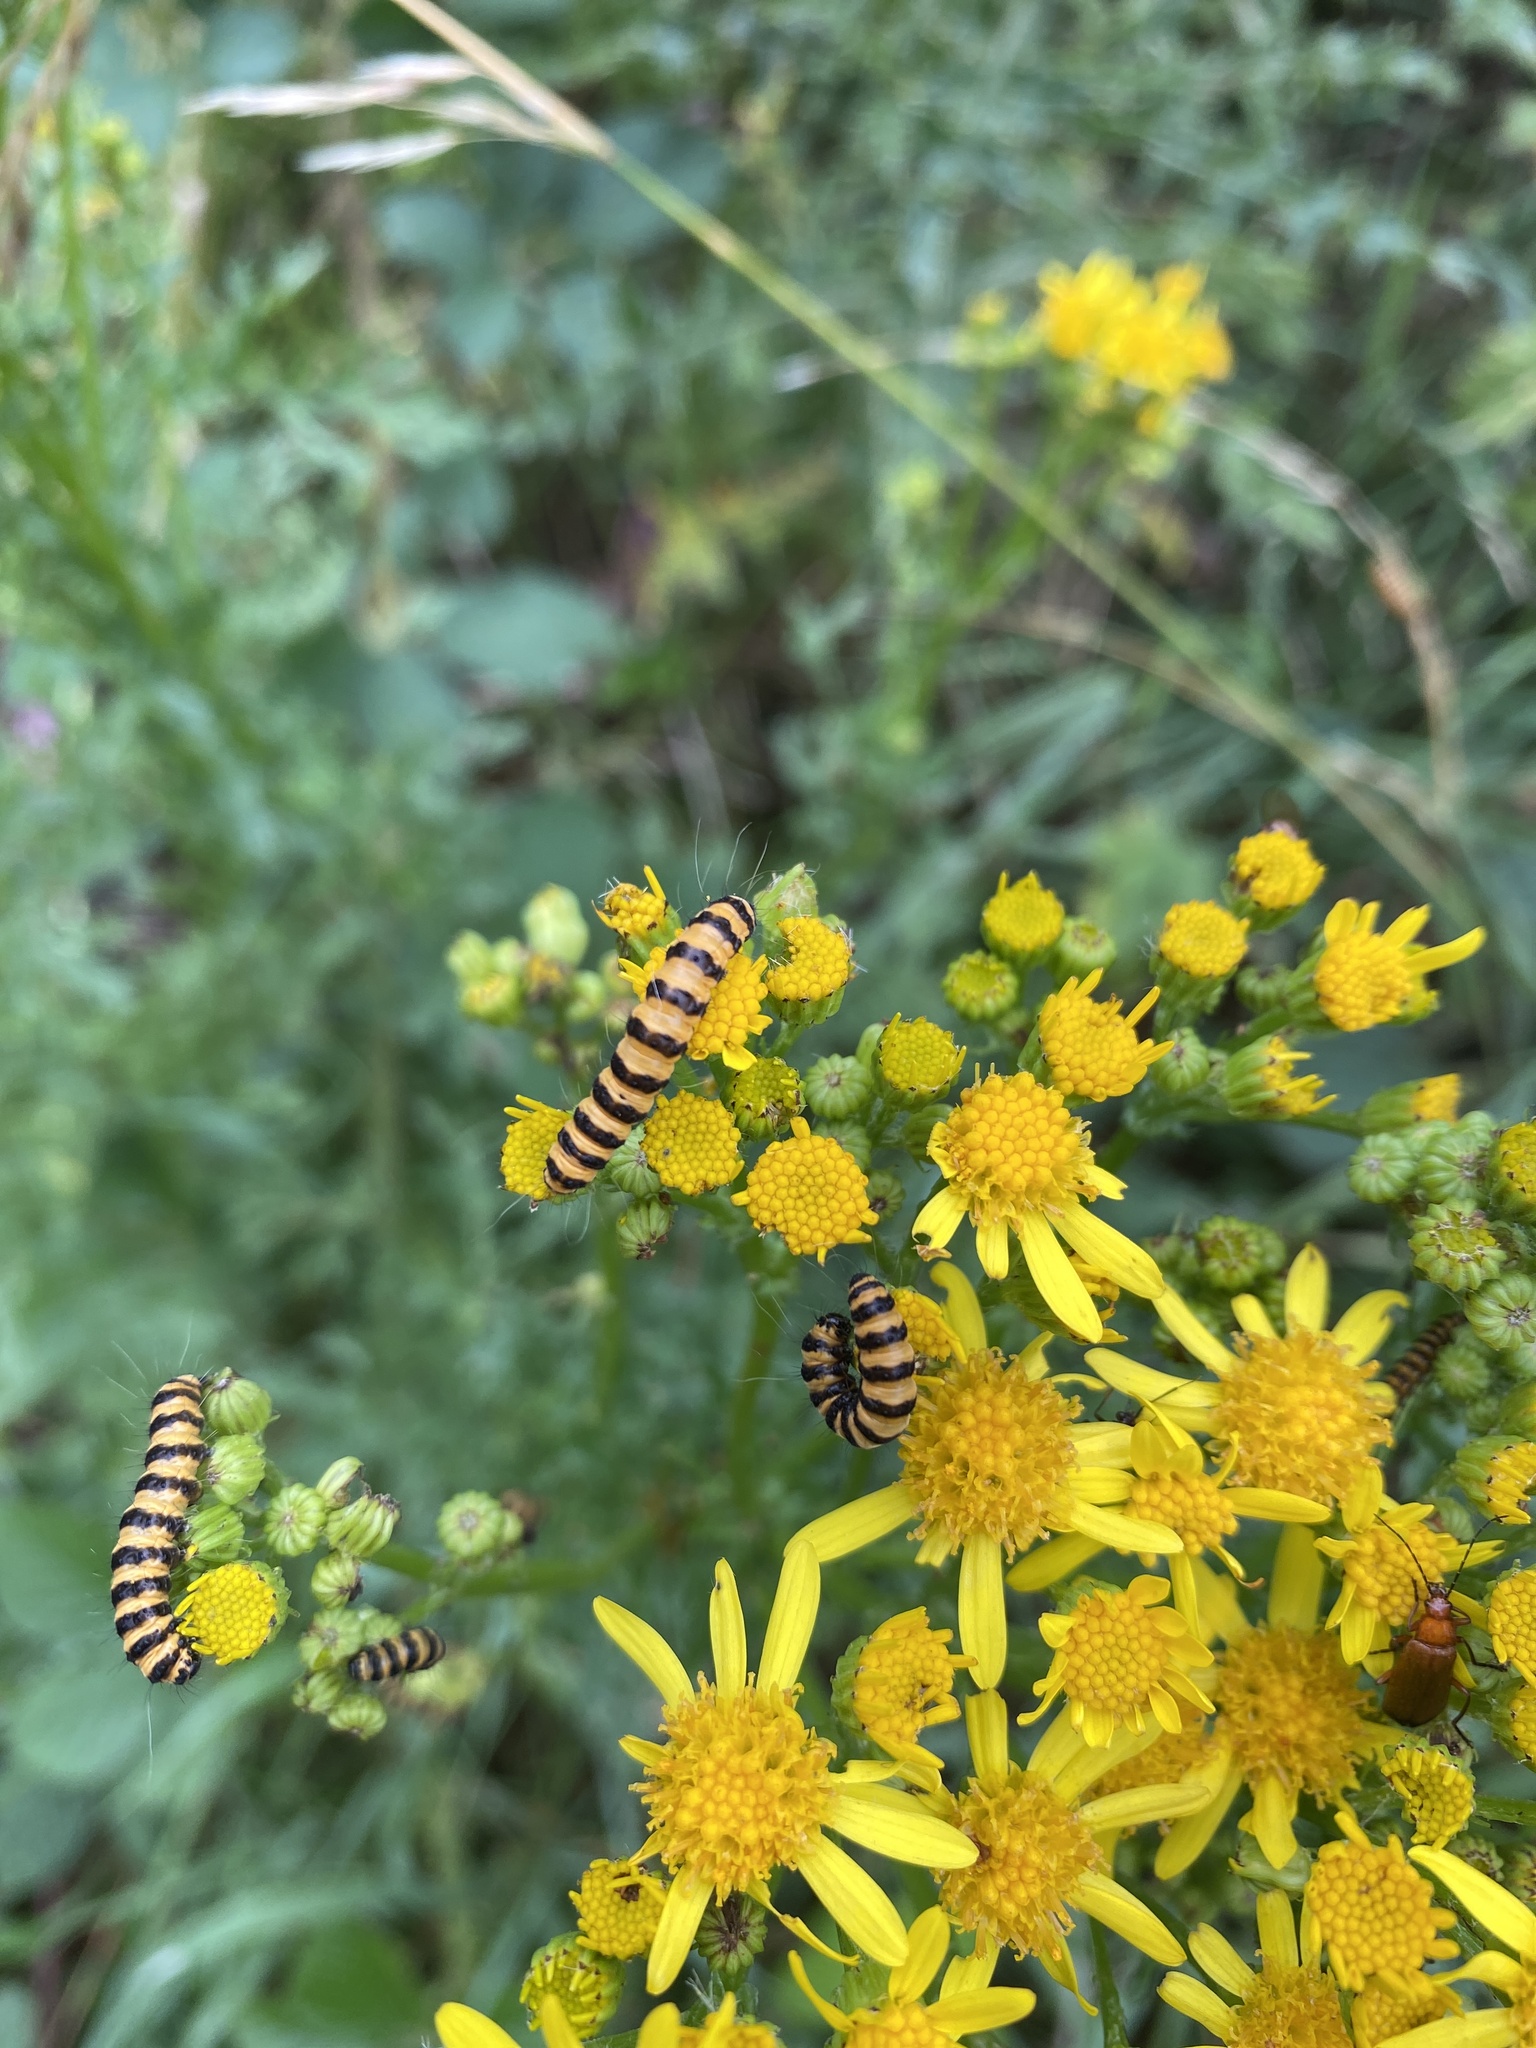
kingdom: Animalia
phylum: Arthropoda
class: Insecta
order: Lepidoptera
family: Erebidae
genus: Tyria
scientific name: Tyria jacobaeae
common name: Cinnabar
